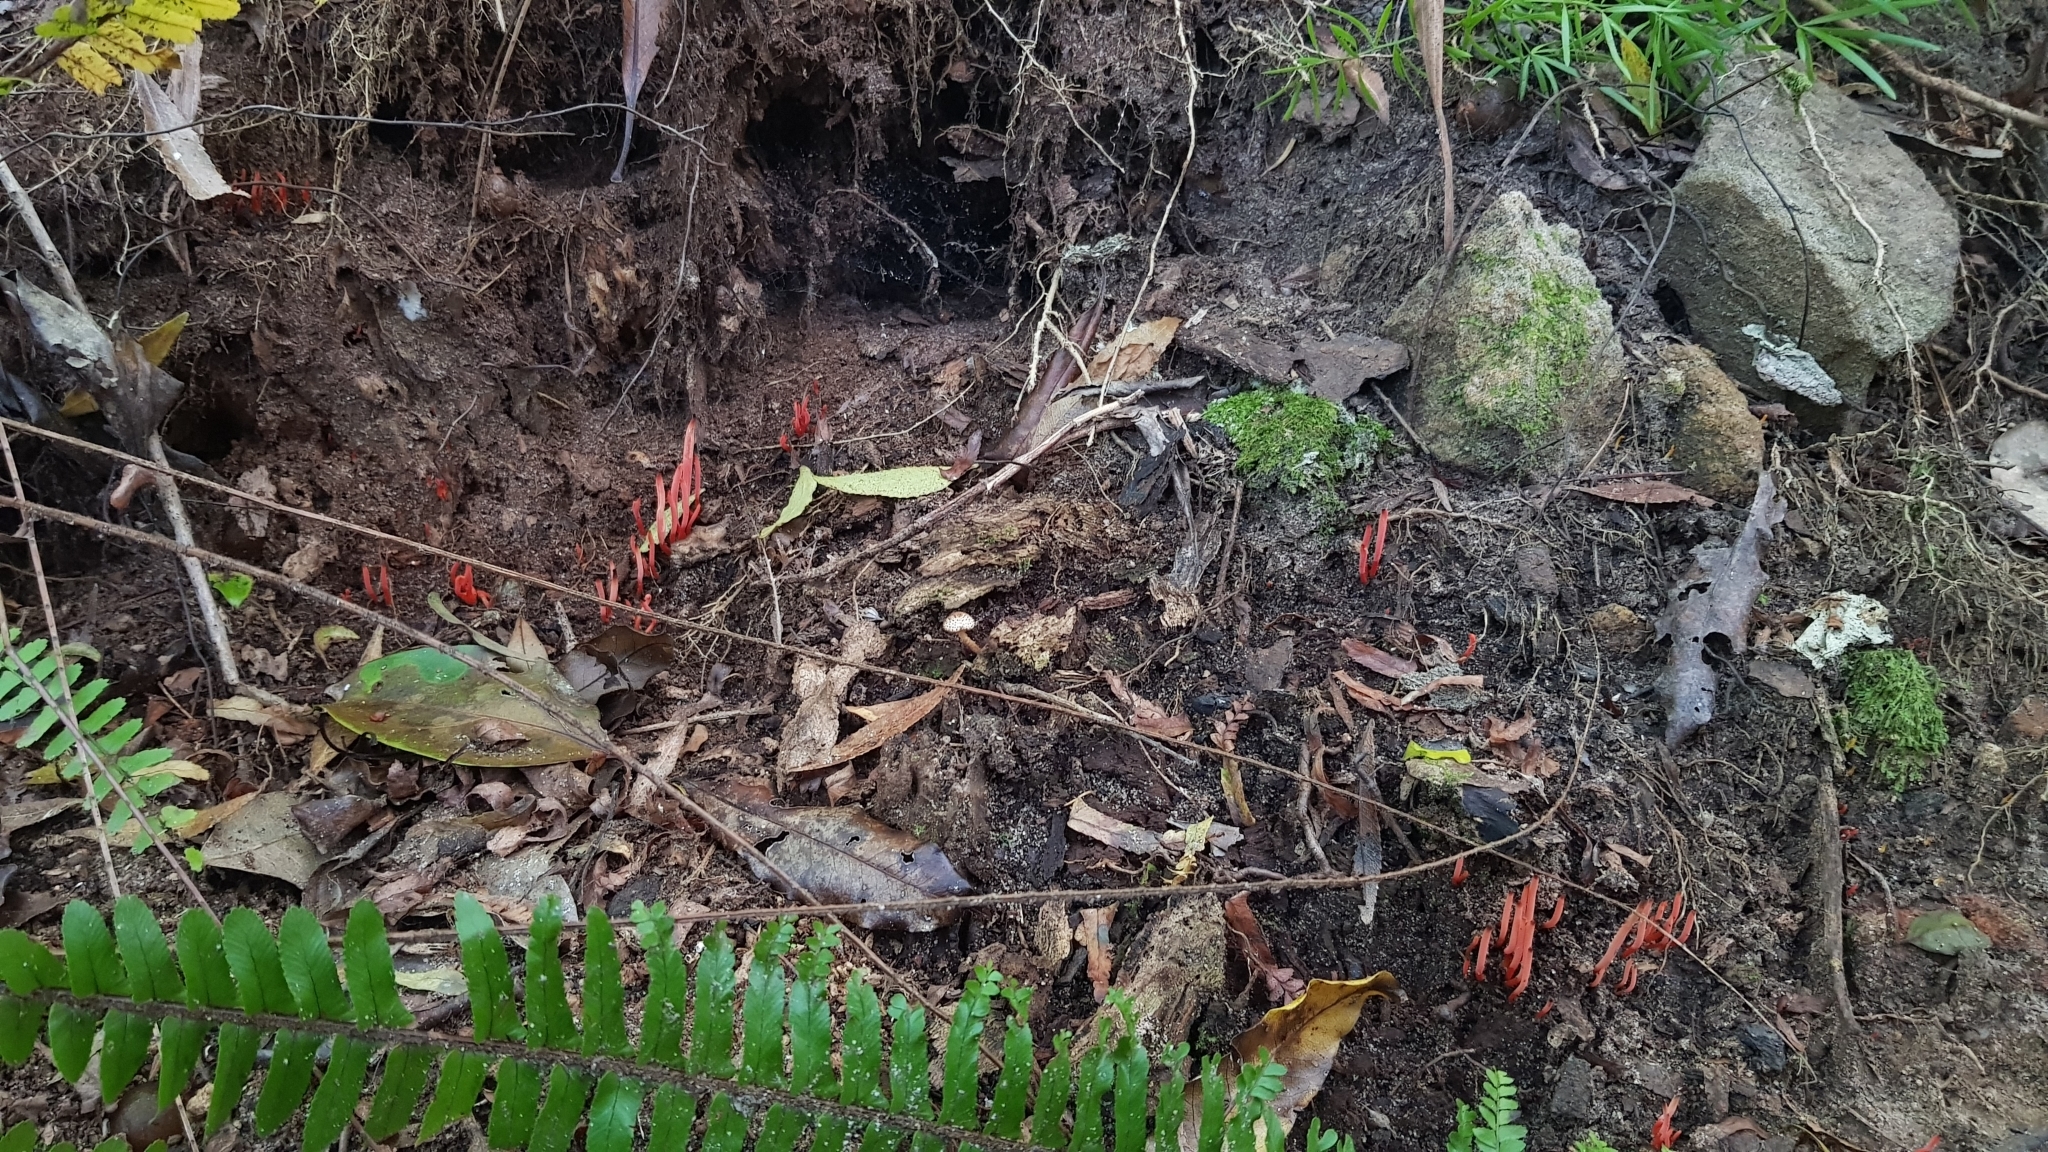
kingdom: Fungi
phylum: Basidiomycota
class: Agaricomycetes
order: Agaricales
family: Clavariaceae
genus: Clavulinopsis
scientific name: Clavulinopsis corallinorosacea
